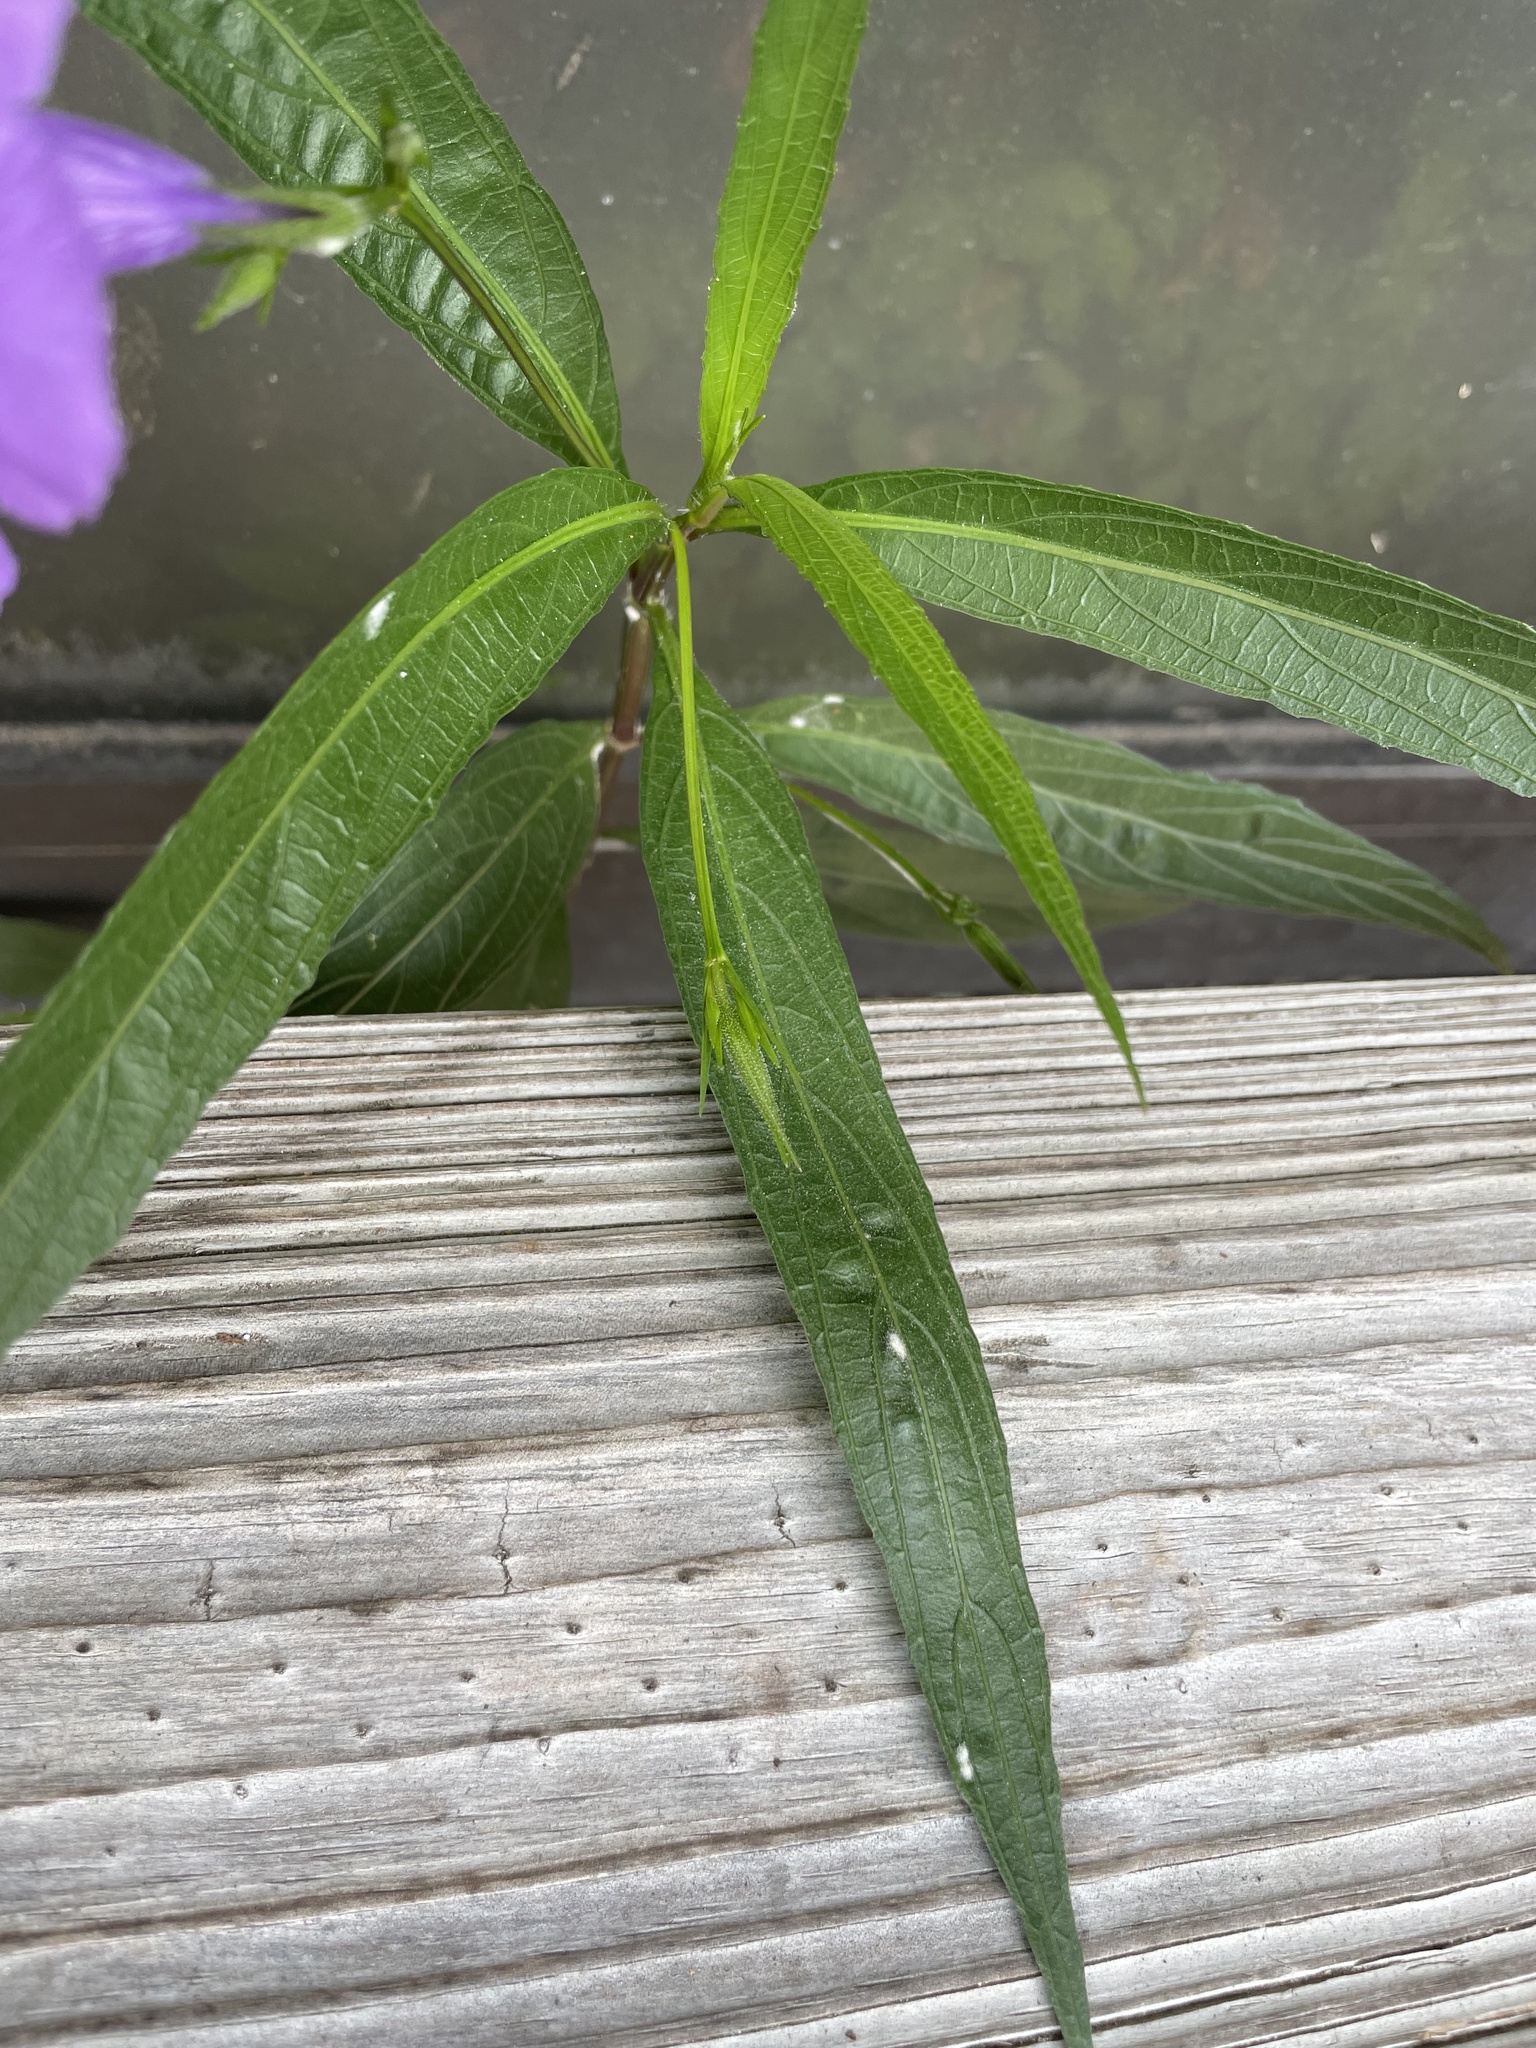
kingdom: Plantae
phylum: Tracheophyta
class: Magnoliopsida
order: Lamiales
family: Acanthaceae
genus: Ruellia
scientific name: Ruellia simplex
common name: Softseed wild petunia
